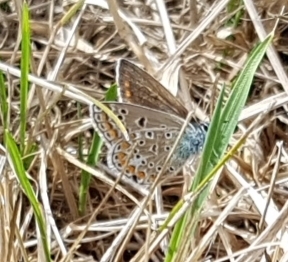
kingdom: Animalia
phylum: Arthropoda
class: Insecta
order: Lepidoptera
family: Lycaenidae
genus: Polyommatus
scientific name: Polyommatus icarus
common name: Common blue
